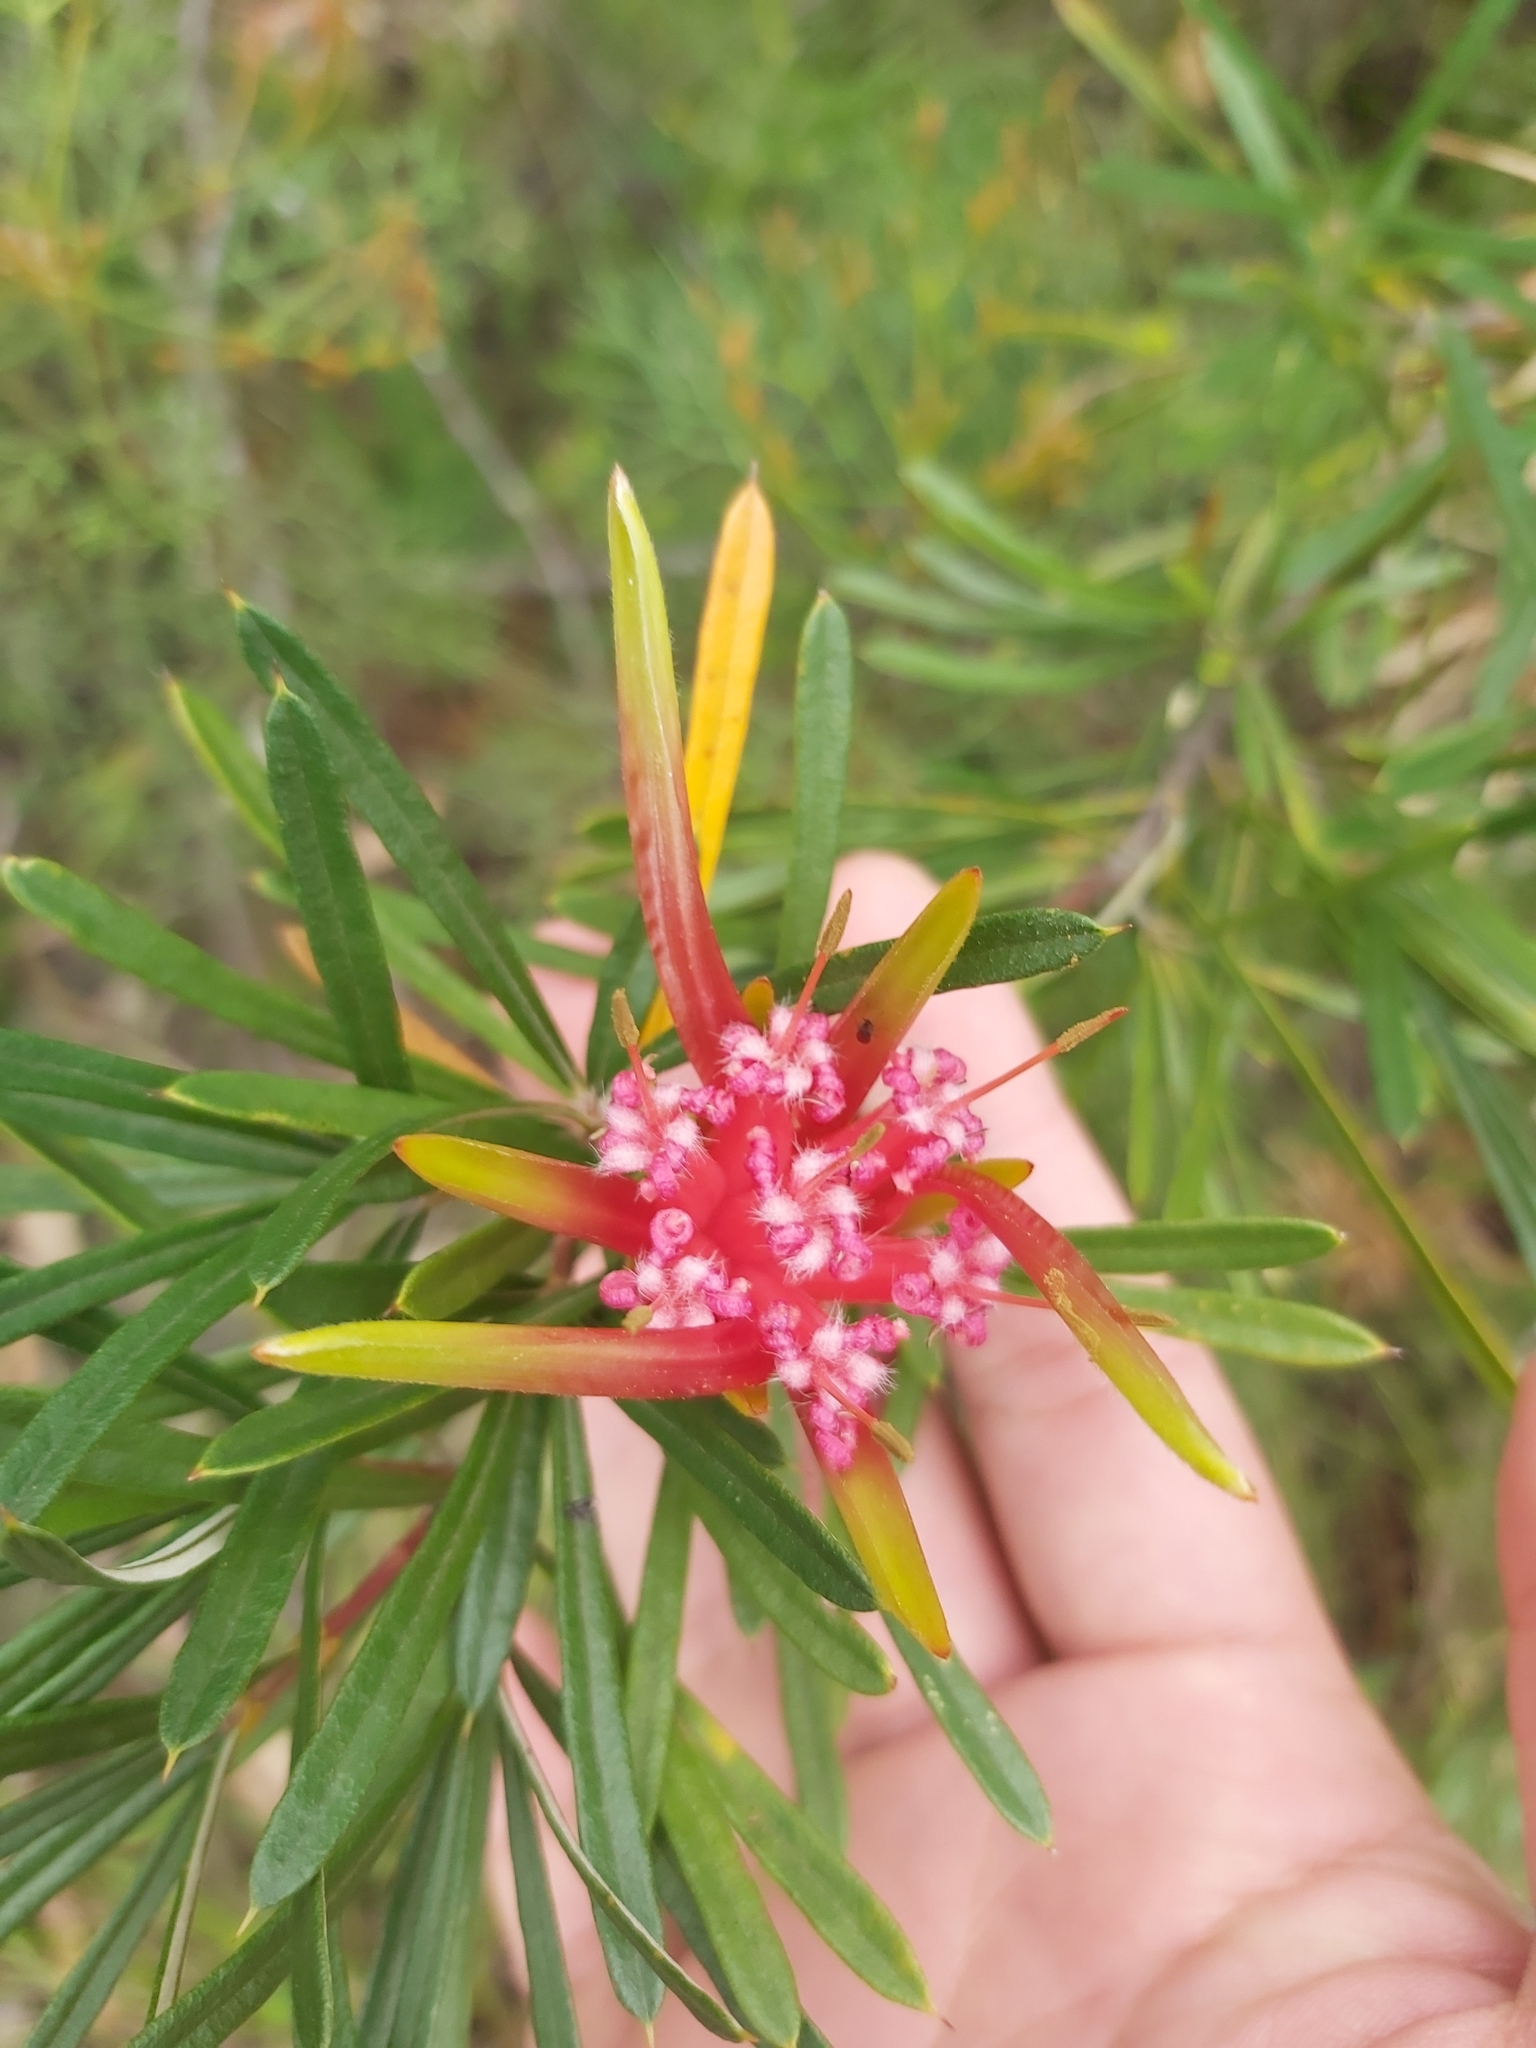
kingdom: Plantae
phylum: Tracheophyta
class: Magnoliopsida
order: Proteales
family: Proteaceae
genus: Lambertia
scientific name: Lambertia formosa
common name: Mountain-devil
